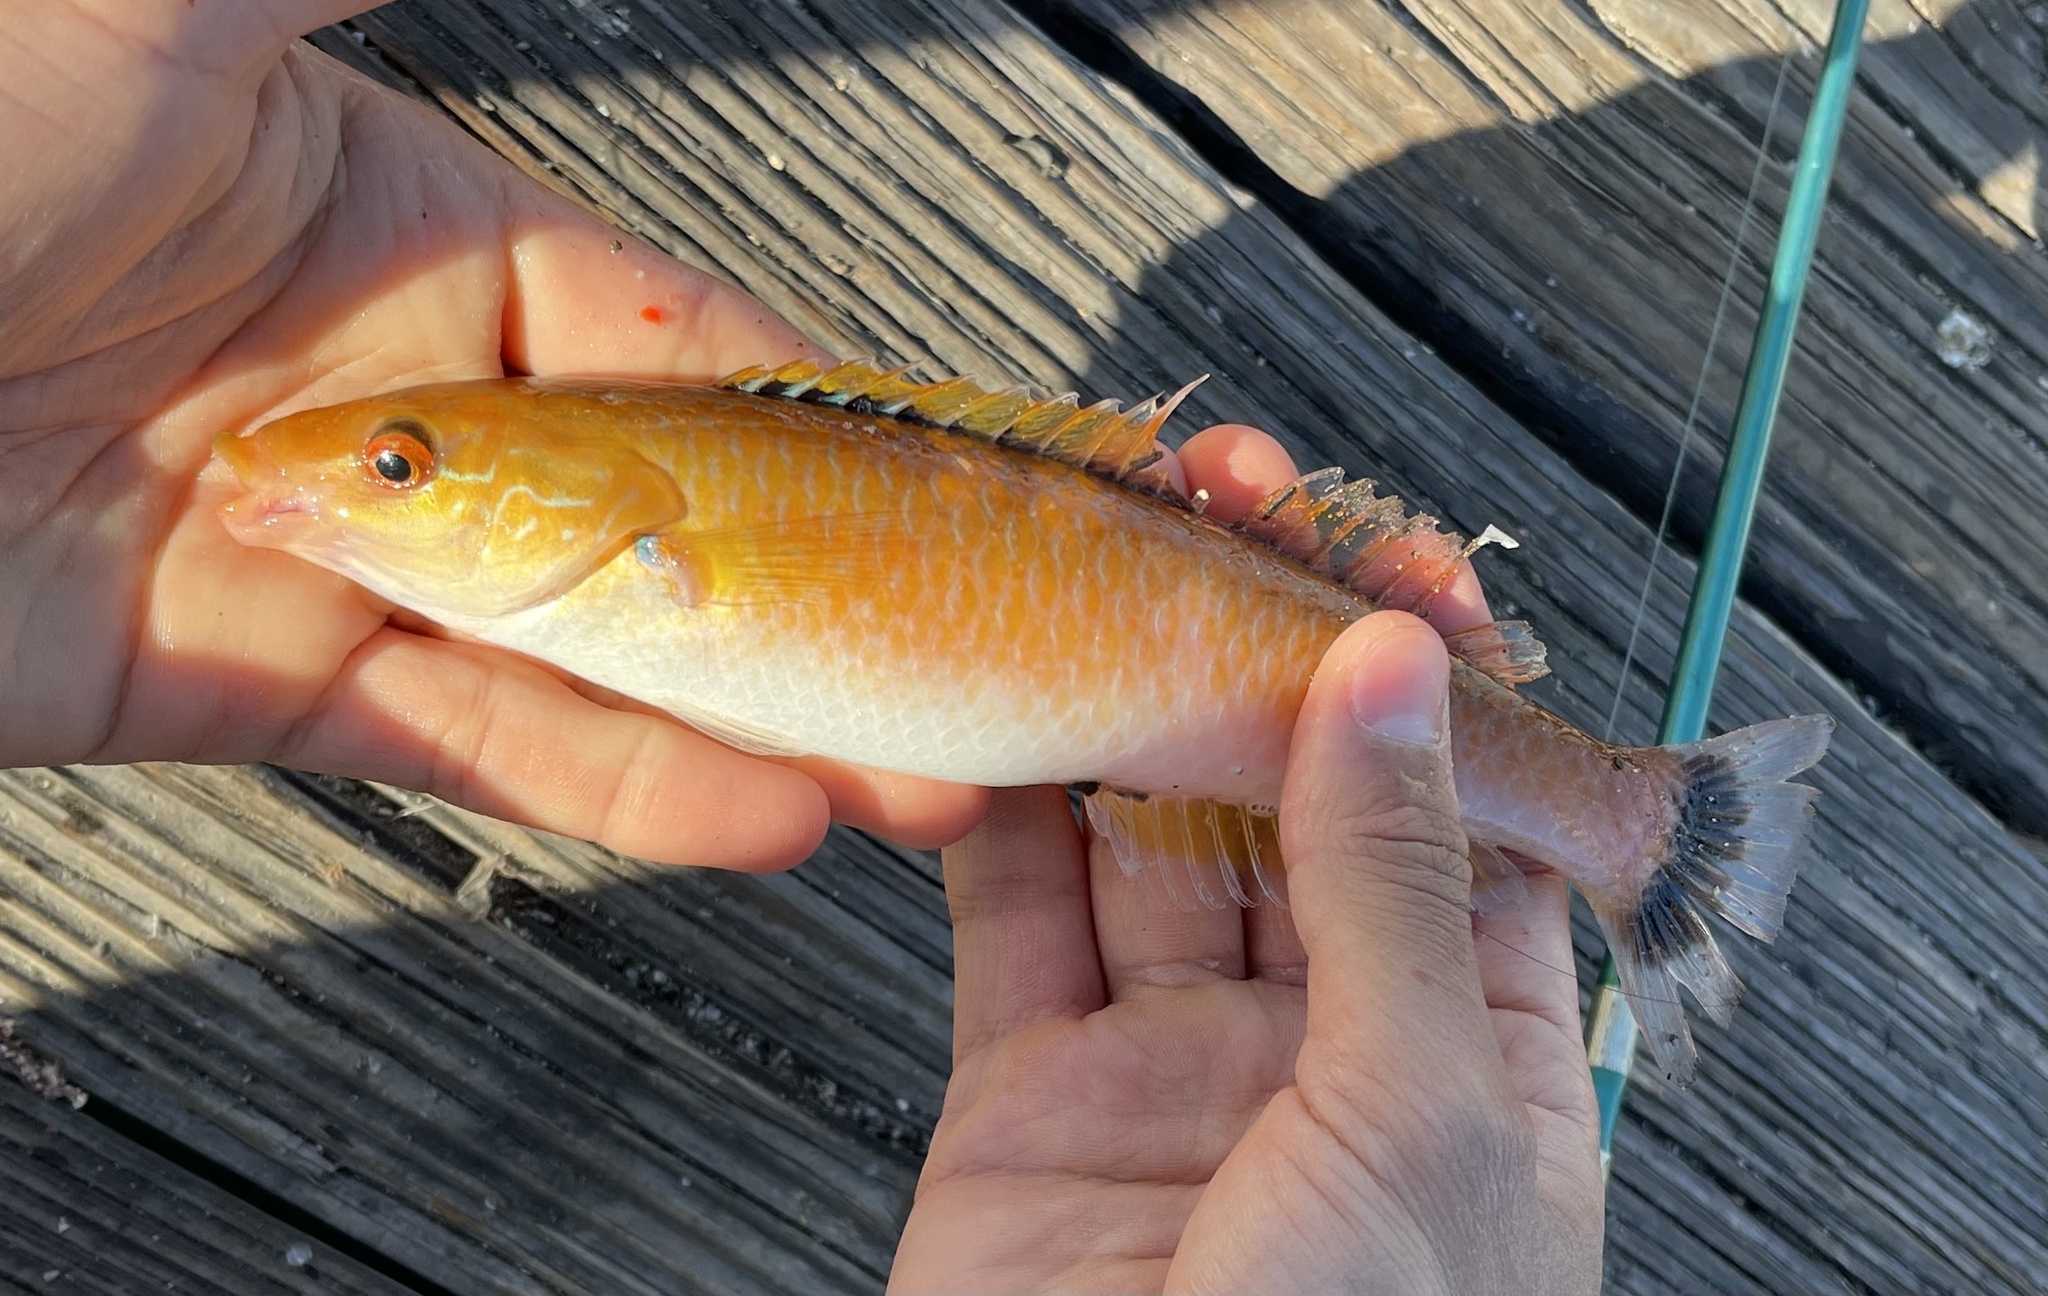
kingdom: Animalia
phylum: Chordata
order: Perciformes
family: Labridae
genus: Oxyjulis
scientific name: Oxyjulis californica
